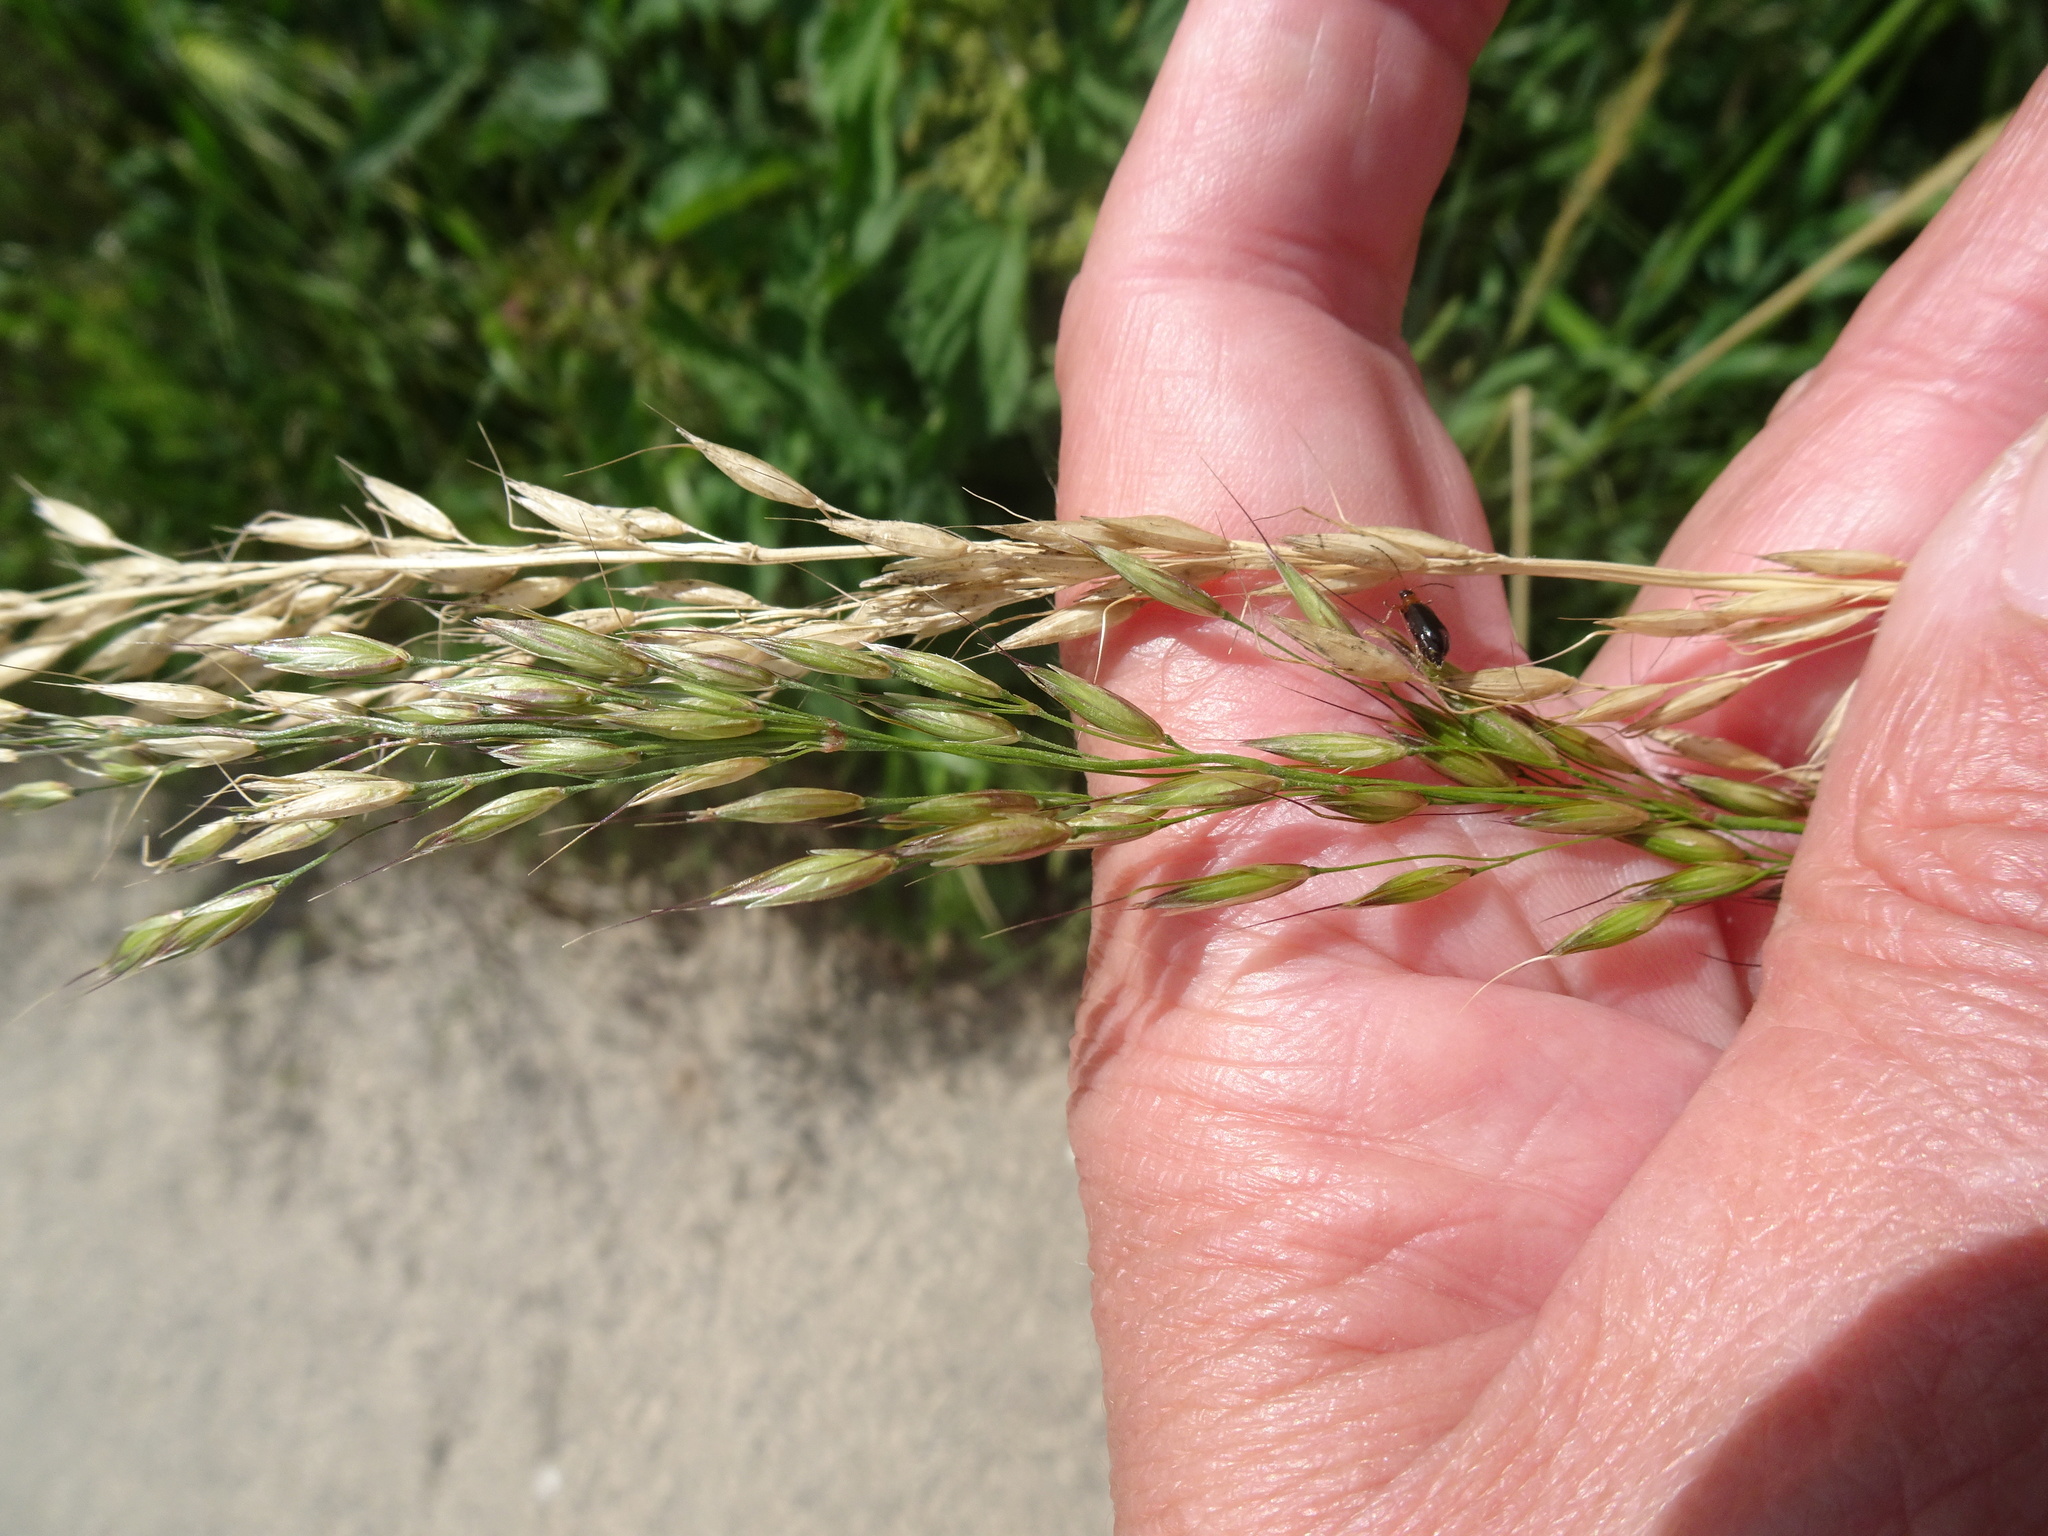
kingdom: Plantae
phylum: Tracheophyta
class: Liliopsida
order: Poales
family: Poaceae
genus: Arrhenatherum
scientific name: Arrhenatherum elatius
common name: Tall oatgrass
